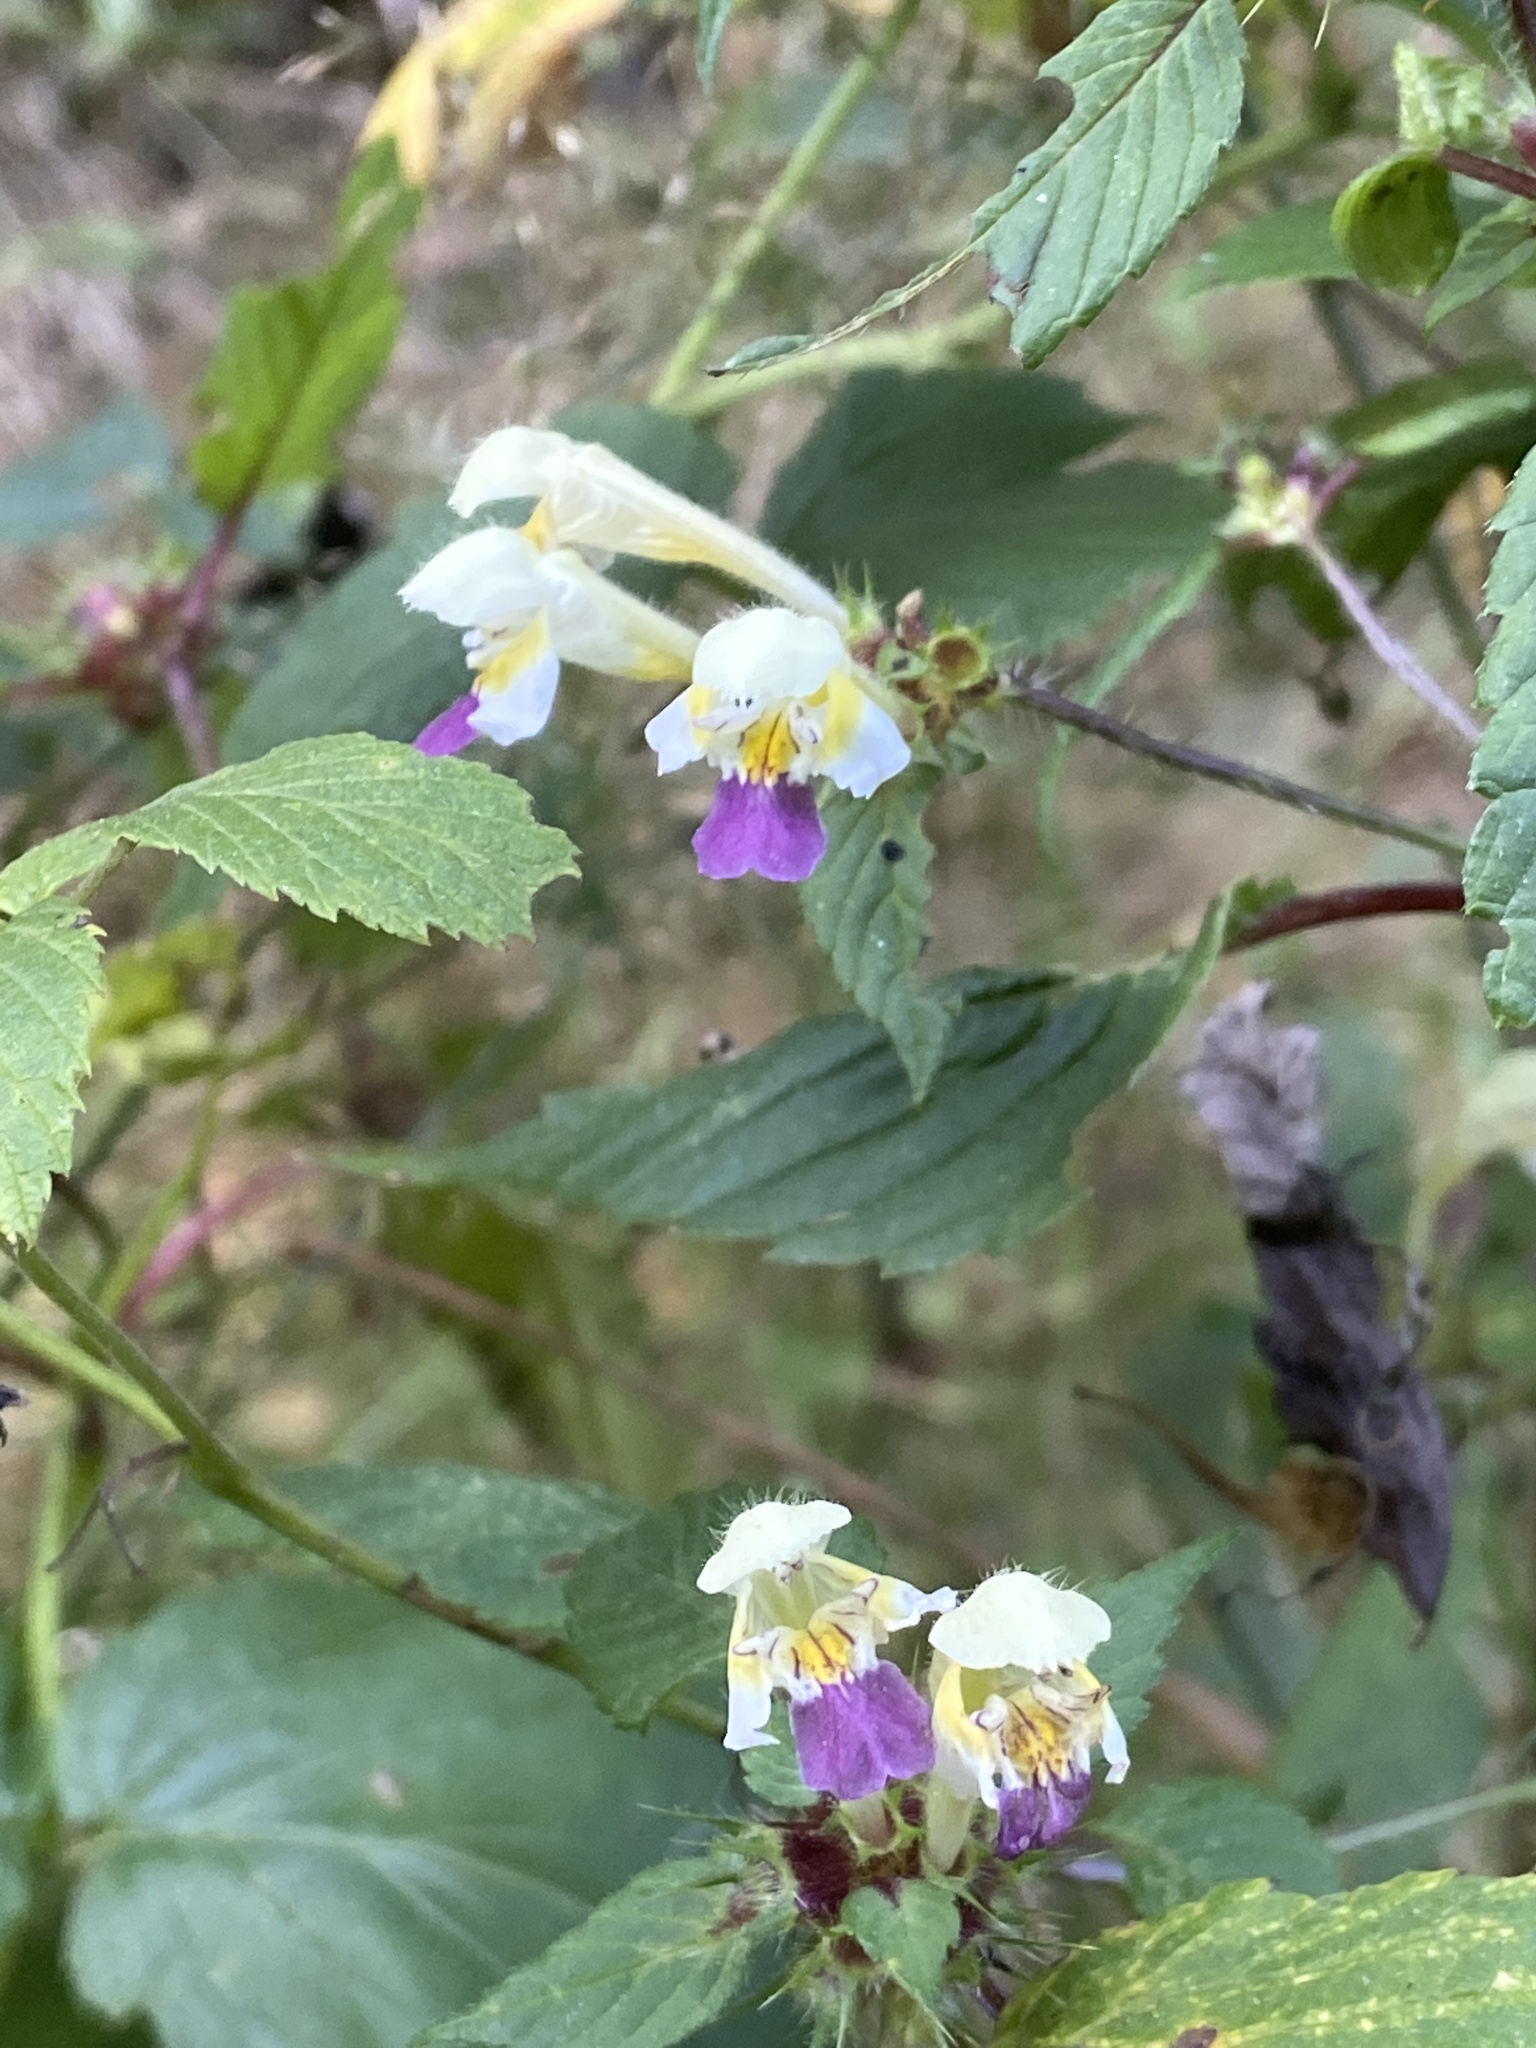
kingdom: Plantae
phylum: Tracheophyta
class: Magnoliopsida
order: Lamiales
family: Lamiaceae
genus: Galeopsis
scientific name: Galeopsis speciosa
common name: Large-flowered hemp-nettle
